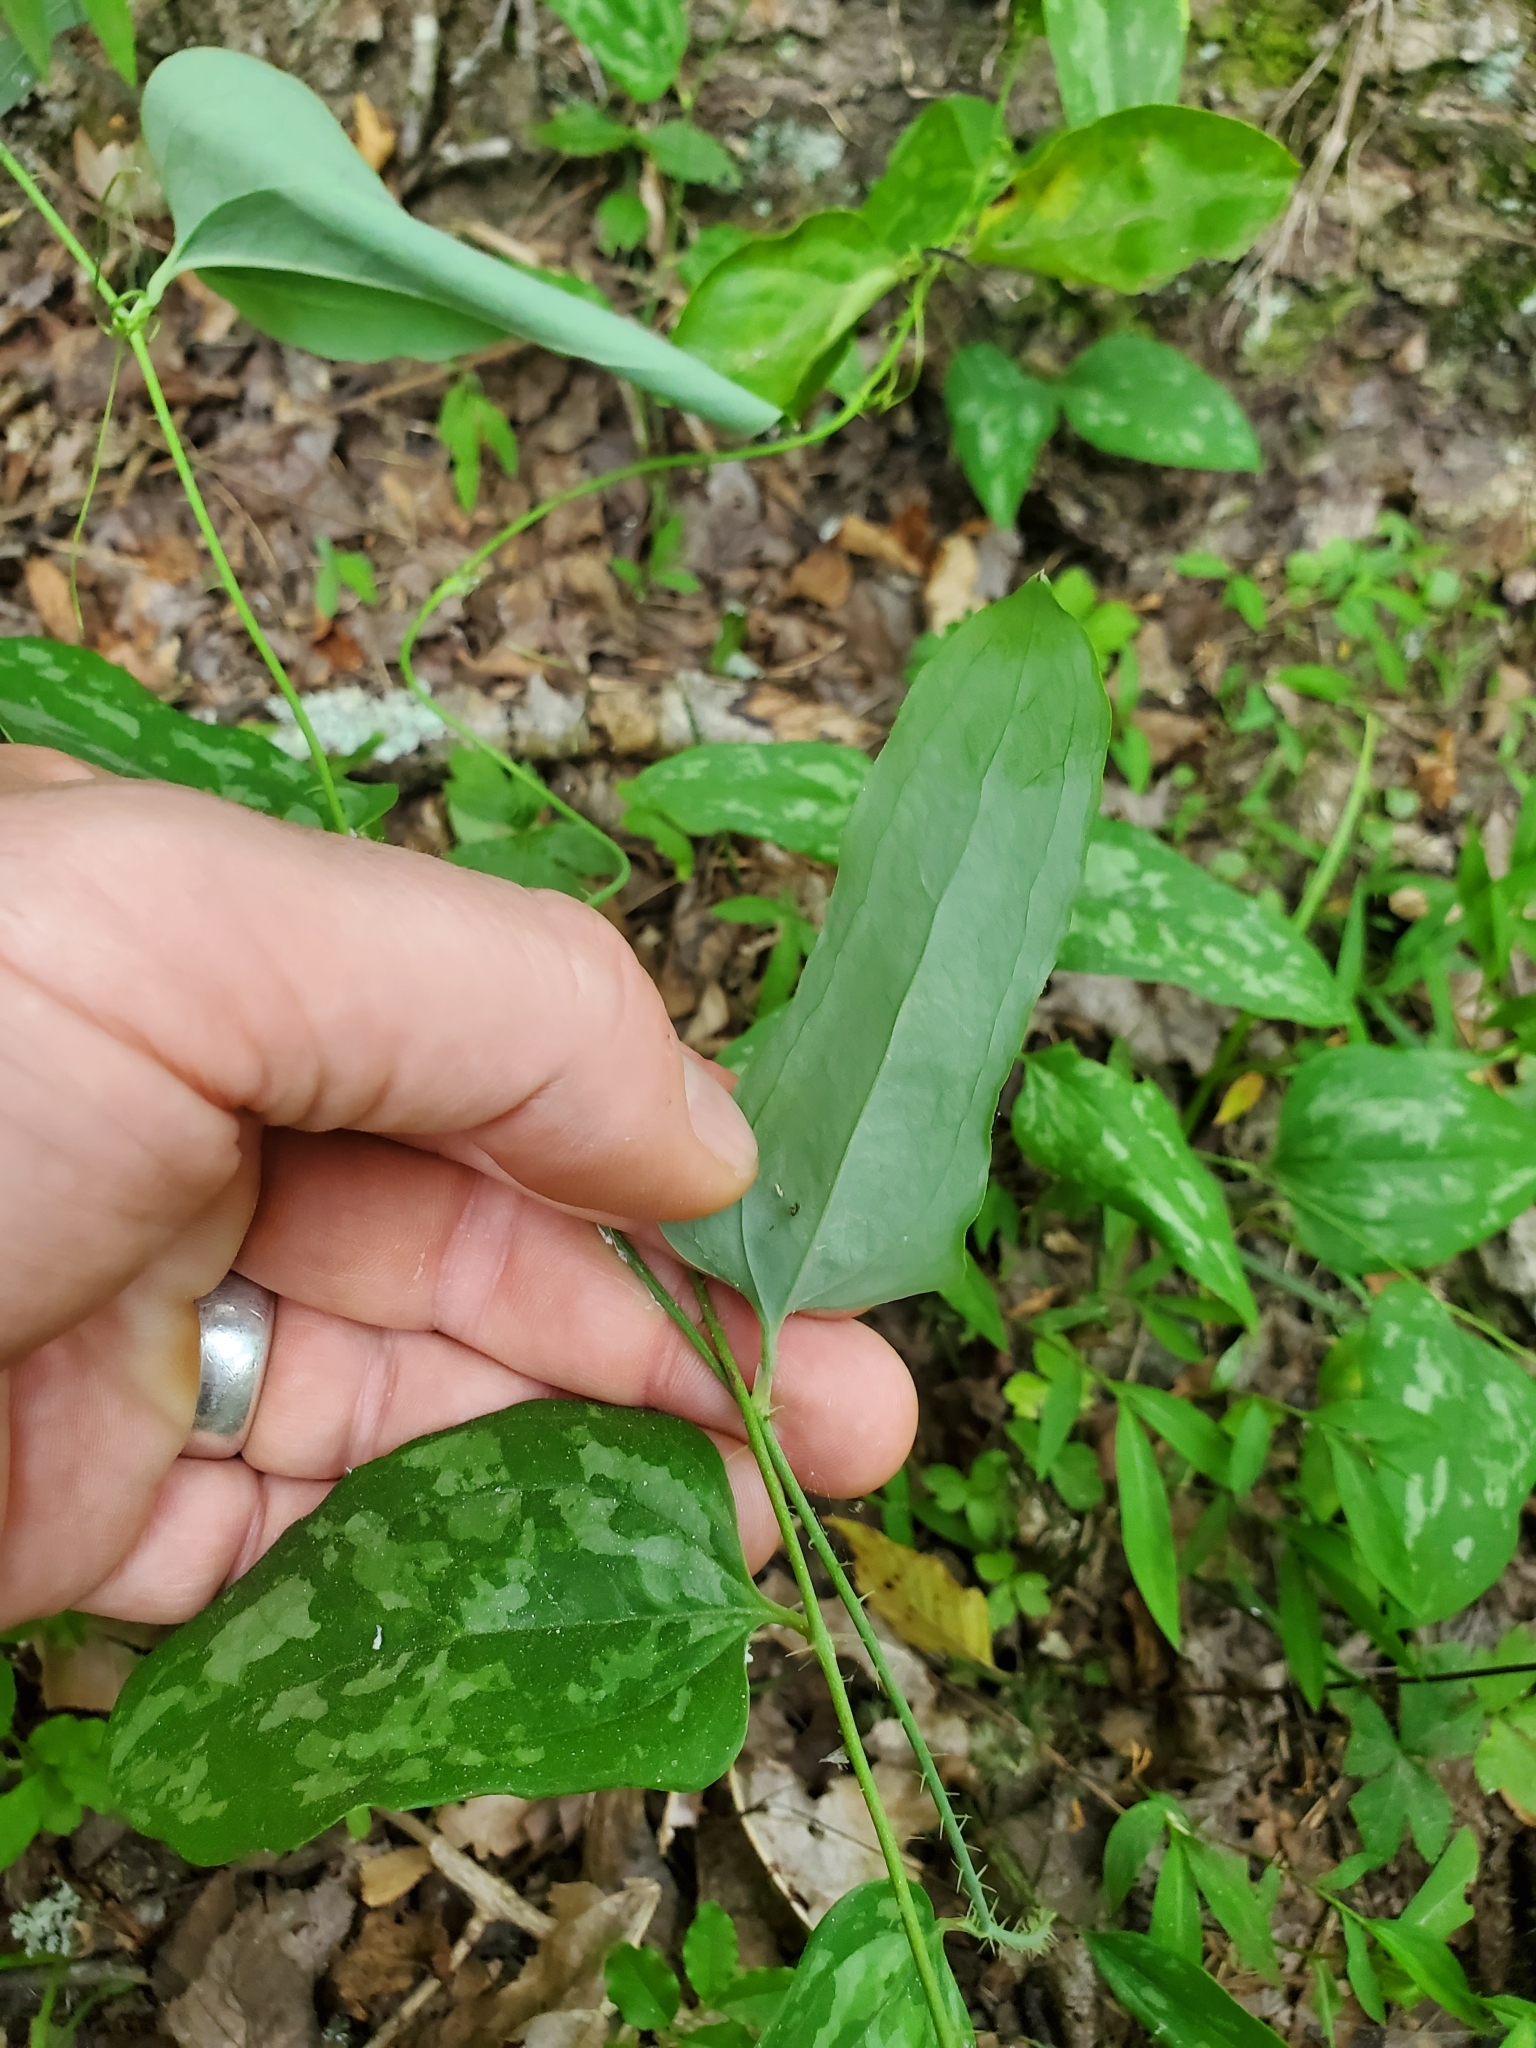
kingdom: Plantae
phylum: Tracheophyta
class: Liliopsida
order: Liliales
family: Smilacaceae
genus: Smilax
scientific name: Smilax glauca
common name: Cat greenbrier
